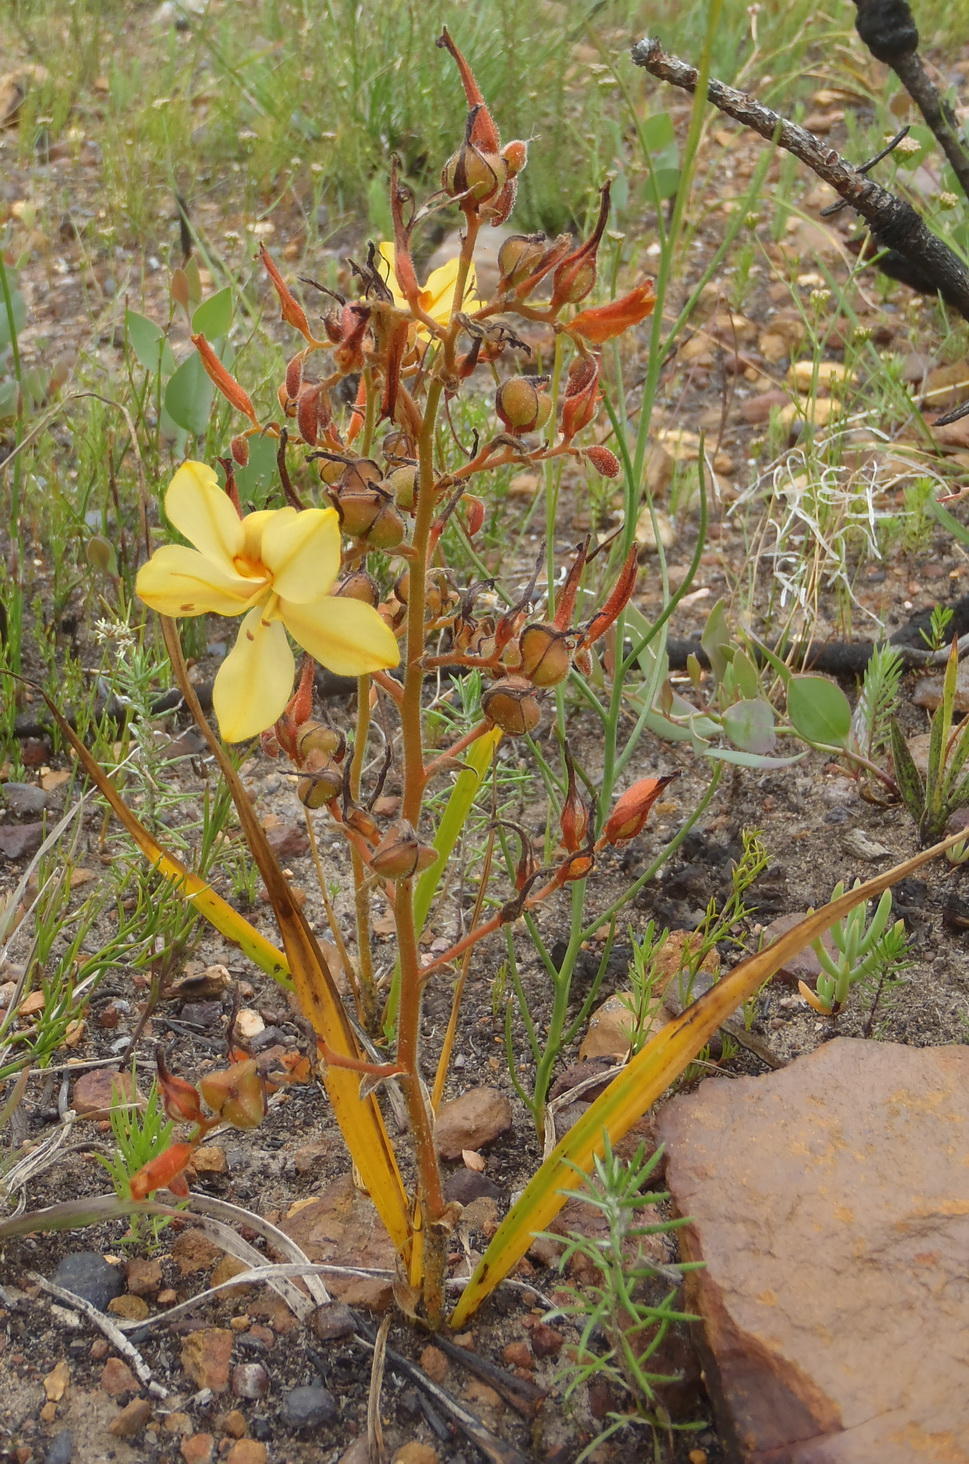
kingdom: Plantae
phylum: Tracheophyta
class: Liliopsida
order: Commelinales
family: Haemodoraceae
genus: Wachendorfia
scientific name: Wachendorfia paniculata
